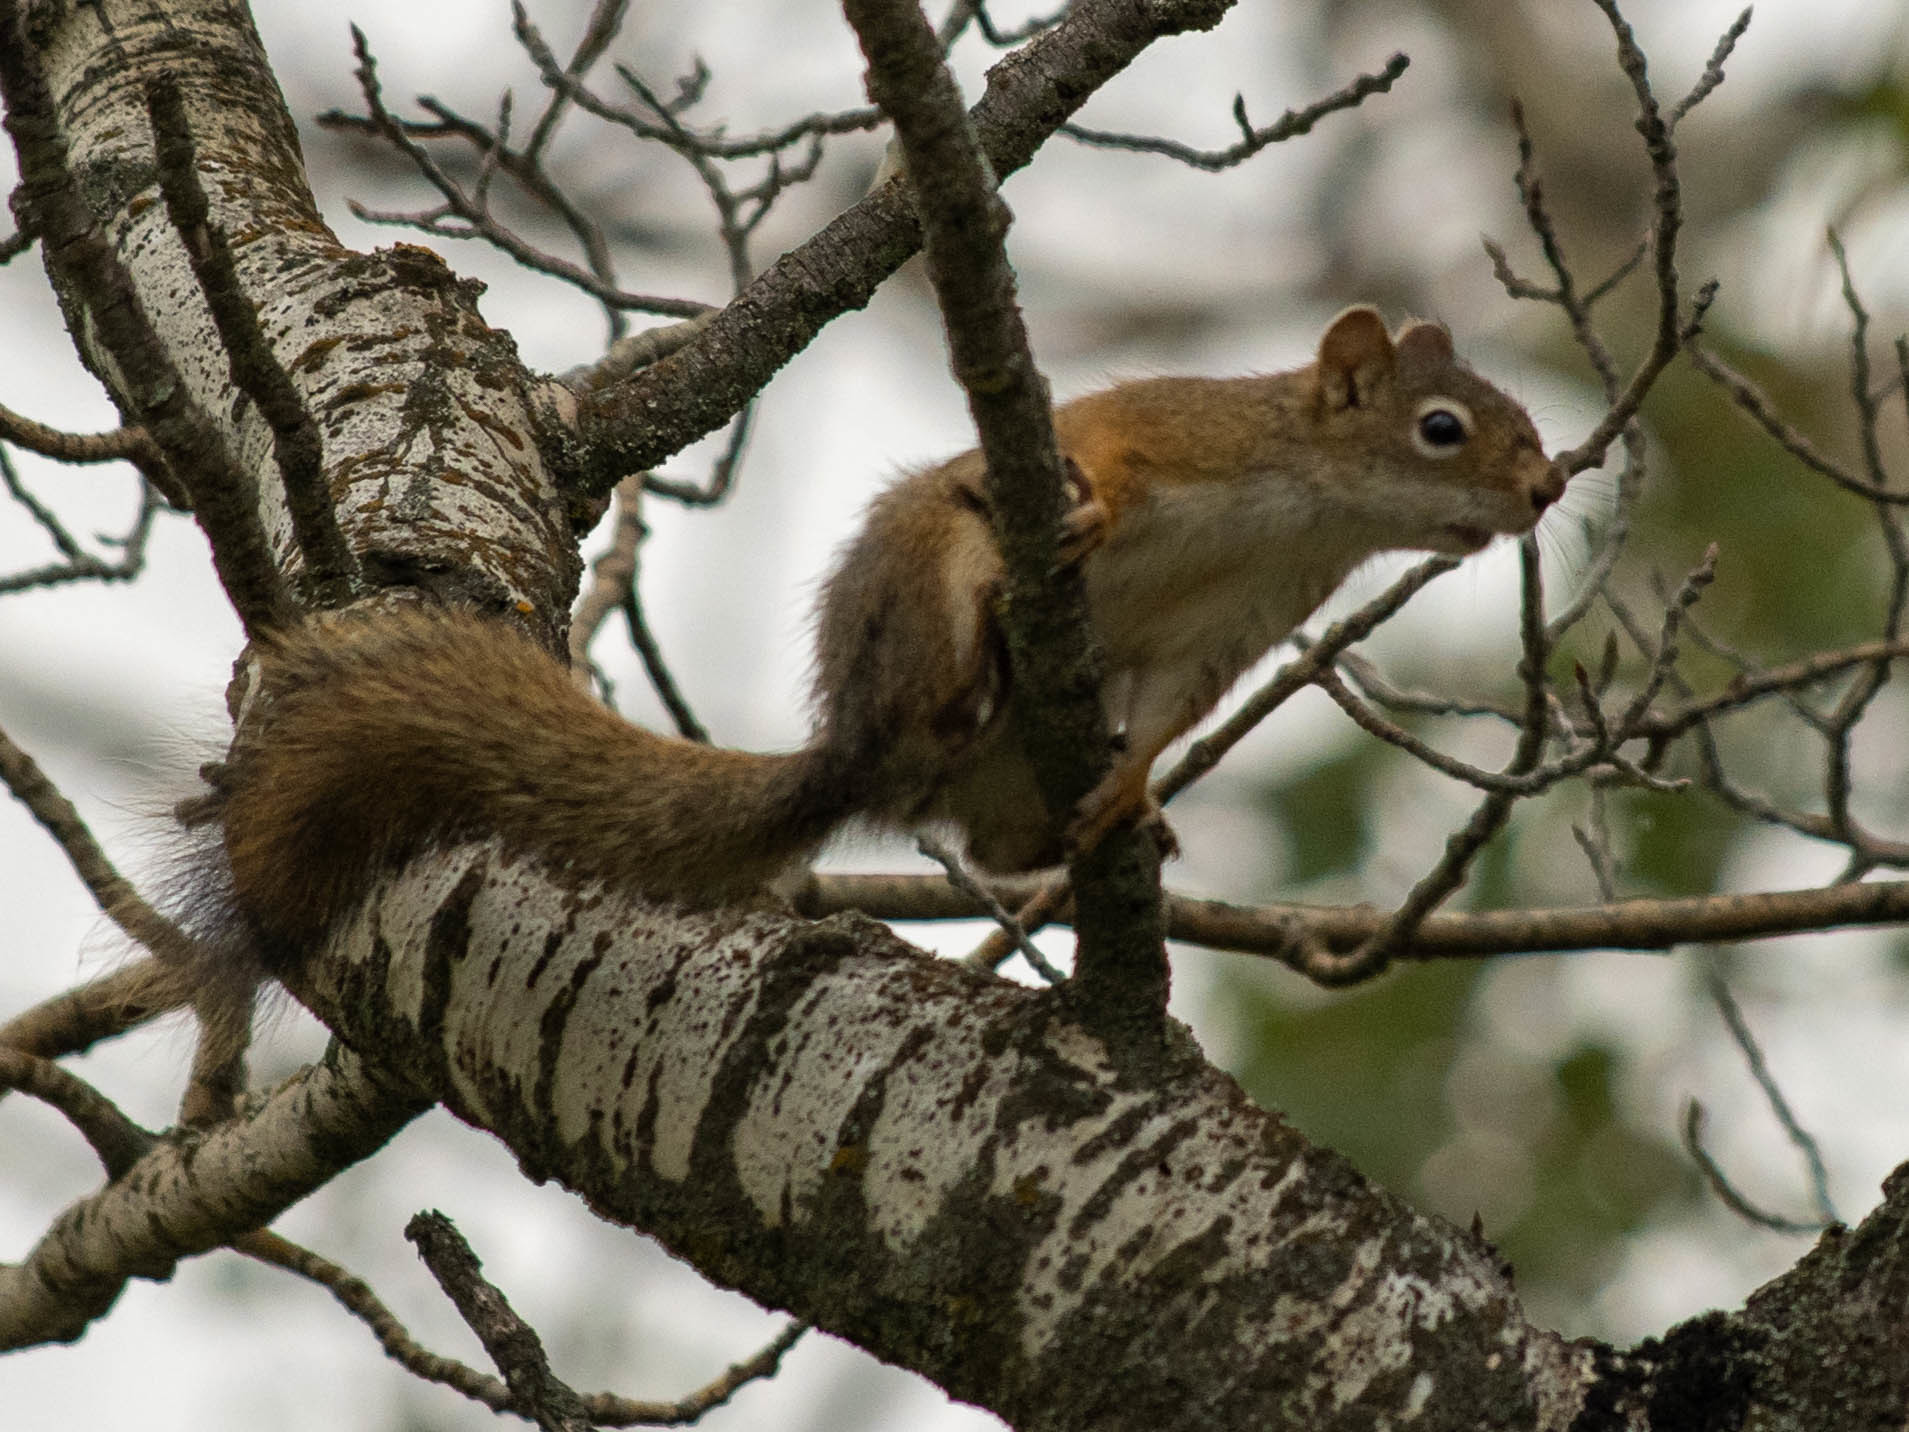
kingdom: Animalia
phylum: Chordata
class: Mammalia
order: Rodentia
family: Sciuridae
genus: Tamiasciurus
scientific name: Tamiasciurus hudsonicus
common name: Red squirrel
